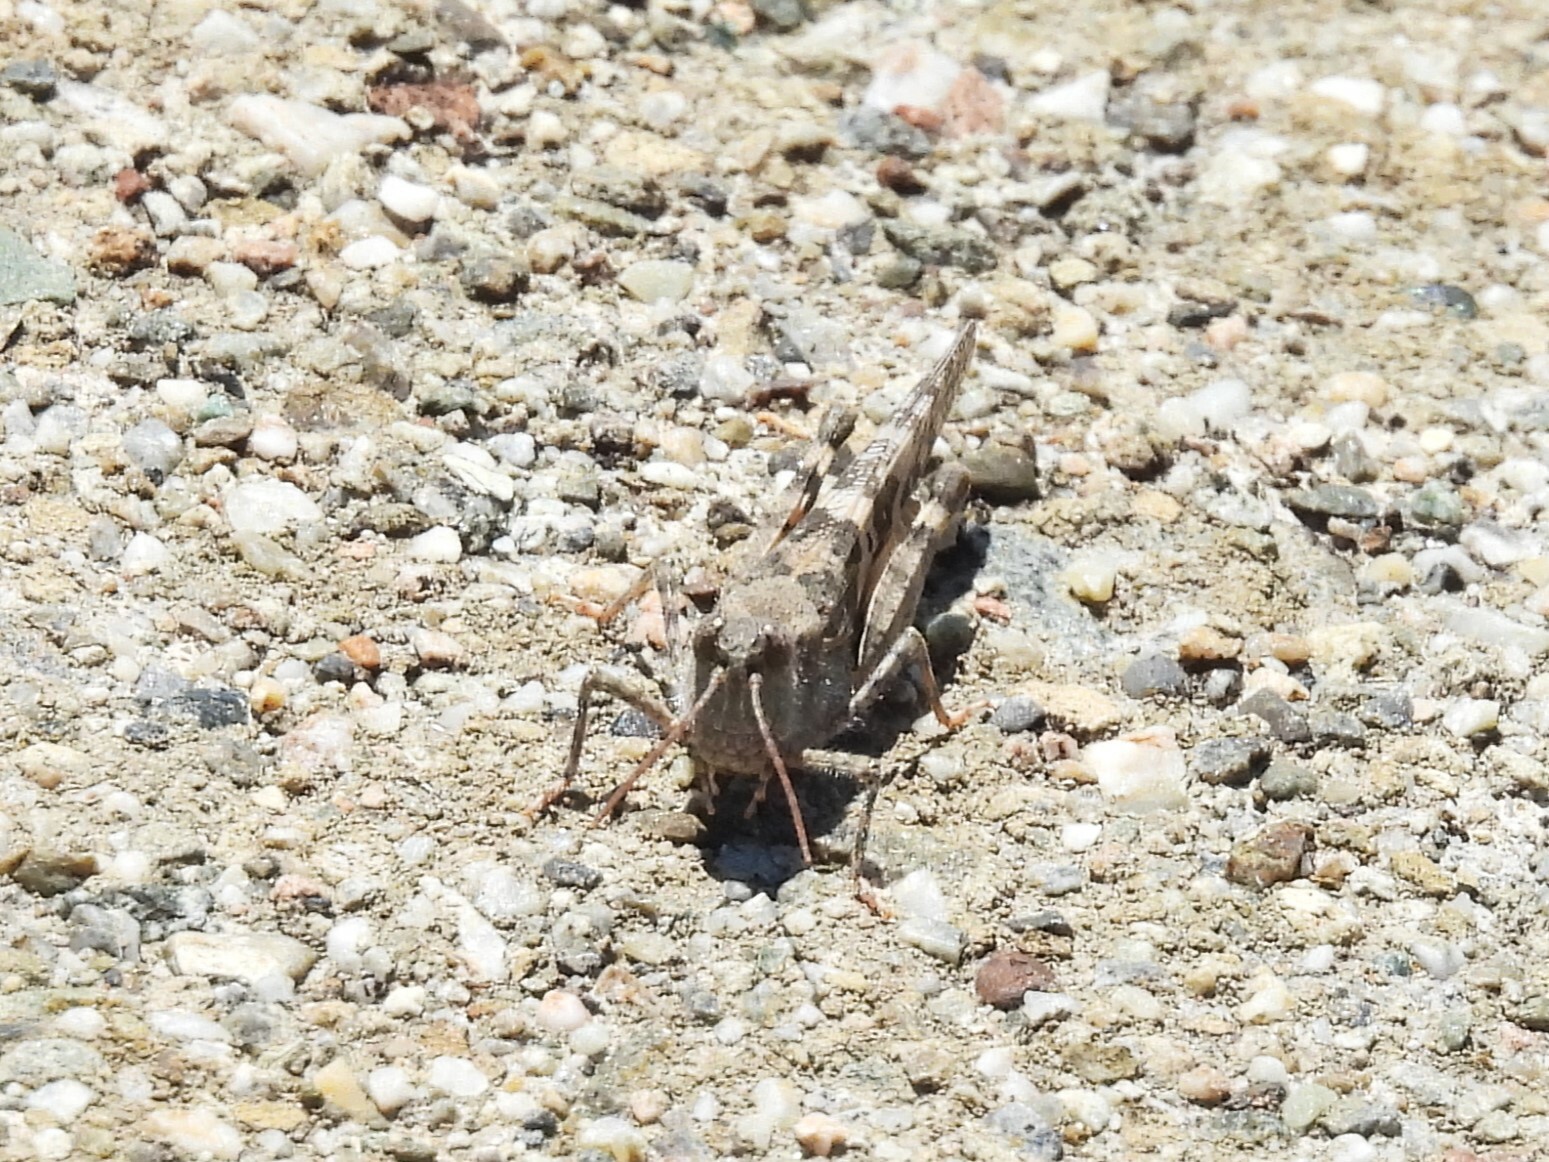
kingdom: Animalia
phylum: Arthropoda
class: Insecta
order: Orthoptera
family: Acrididae
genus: Trimerotropis
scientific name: Trimerotropis pallidipennis
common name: Pallid-winged grasshopper
